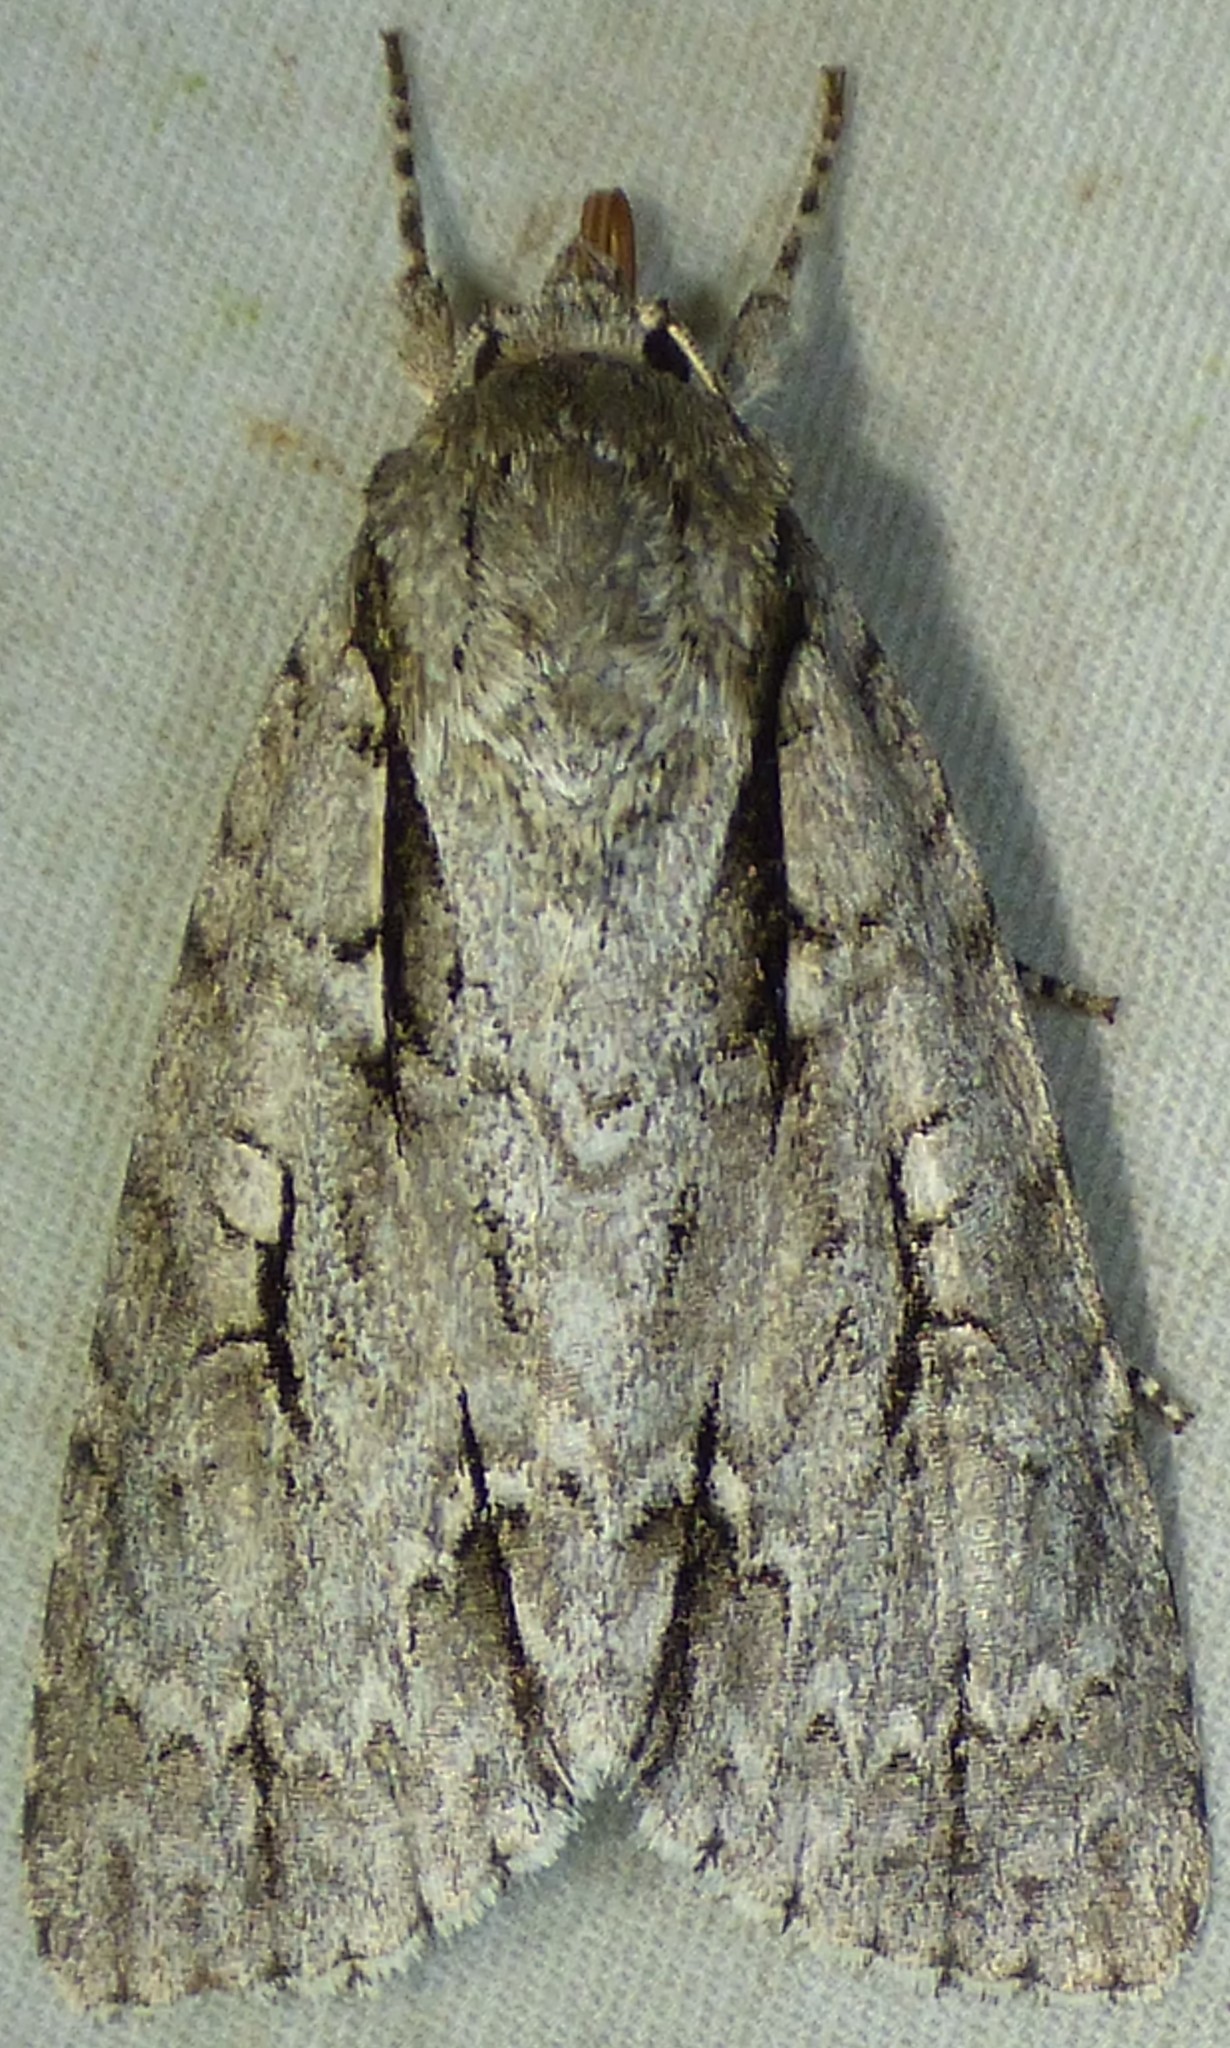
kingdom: Animalia
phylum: Arthropoda
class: Insecta
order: Lepidoptera
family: Noctuidae
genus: Acronicta
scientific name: Acronicta lobeliae
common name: Greater oak dagger
